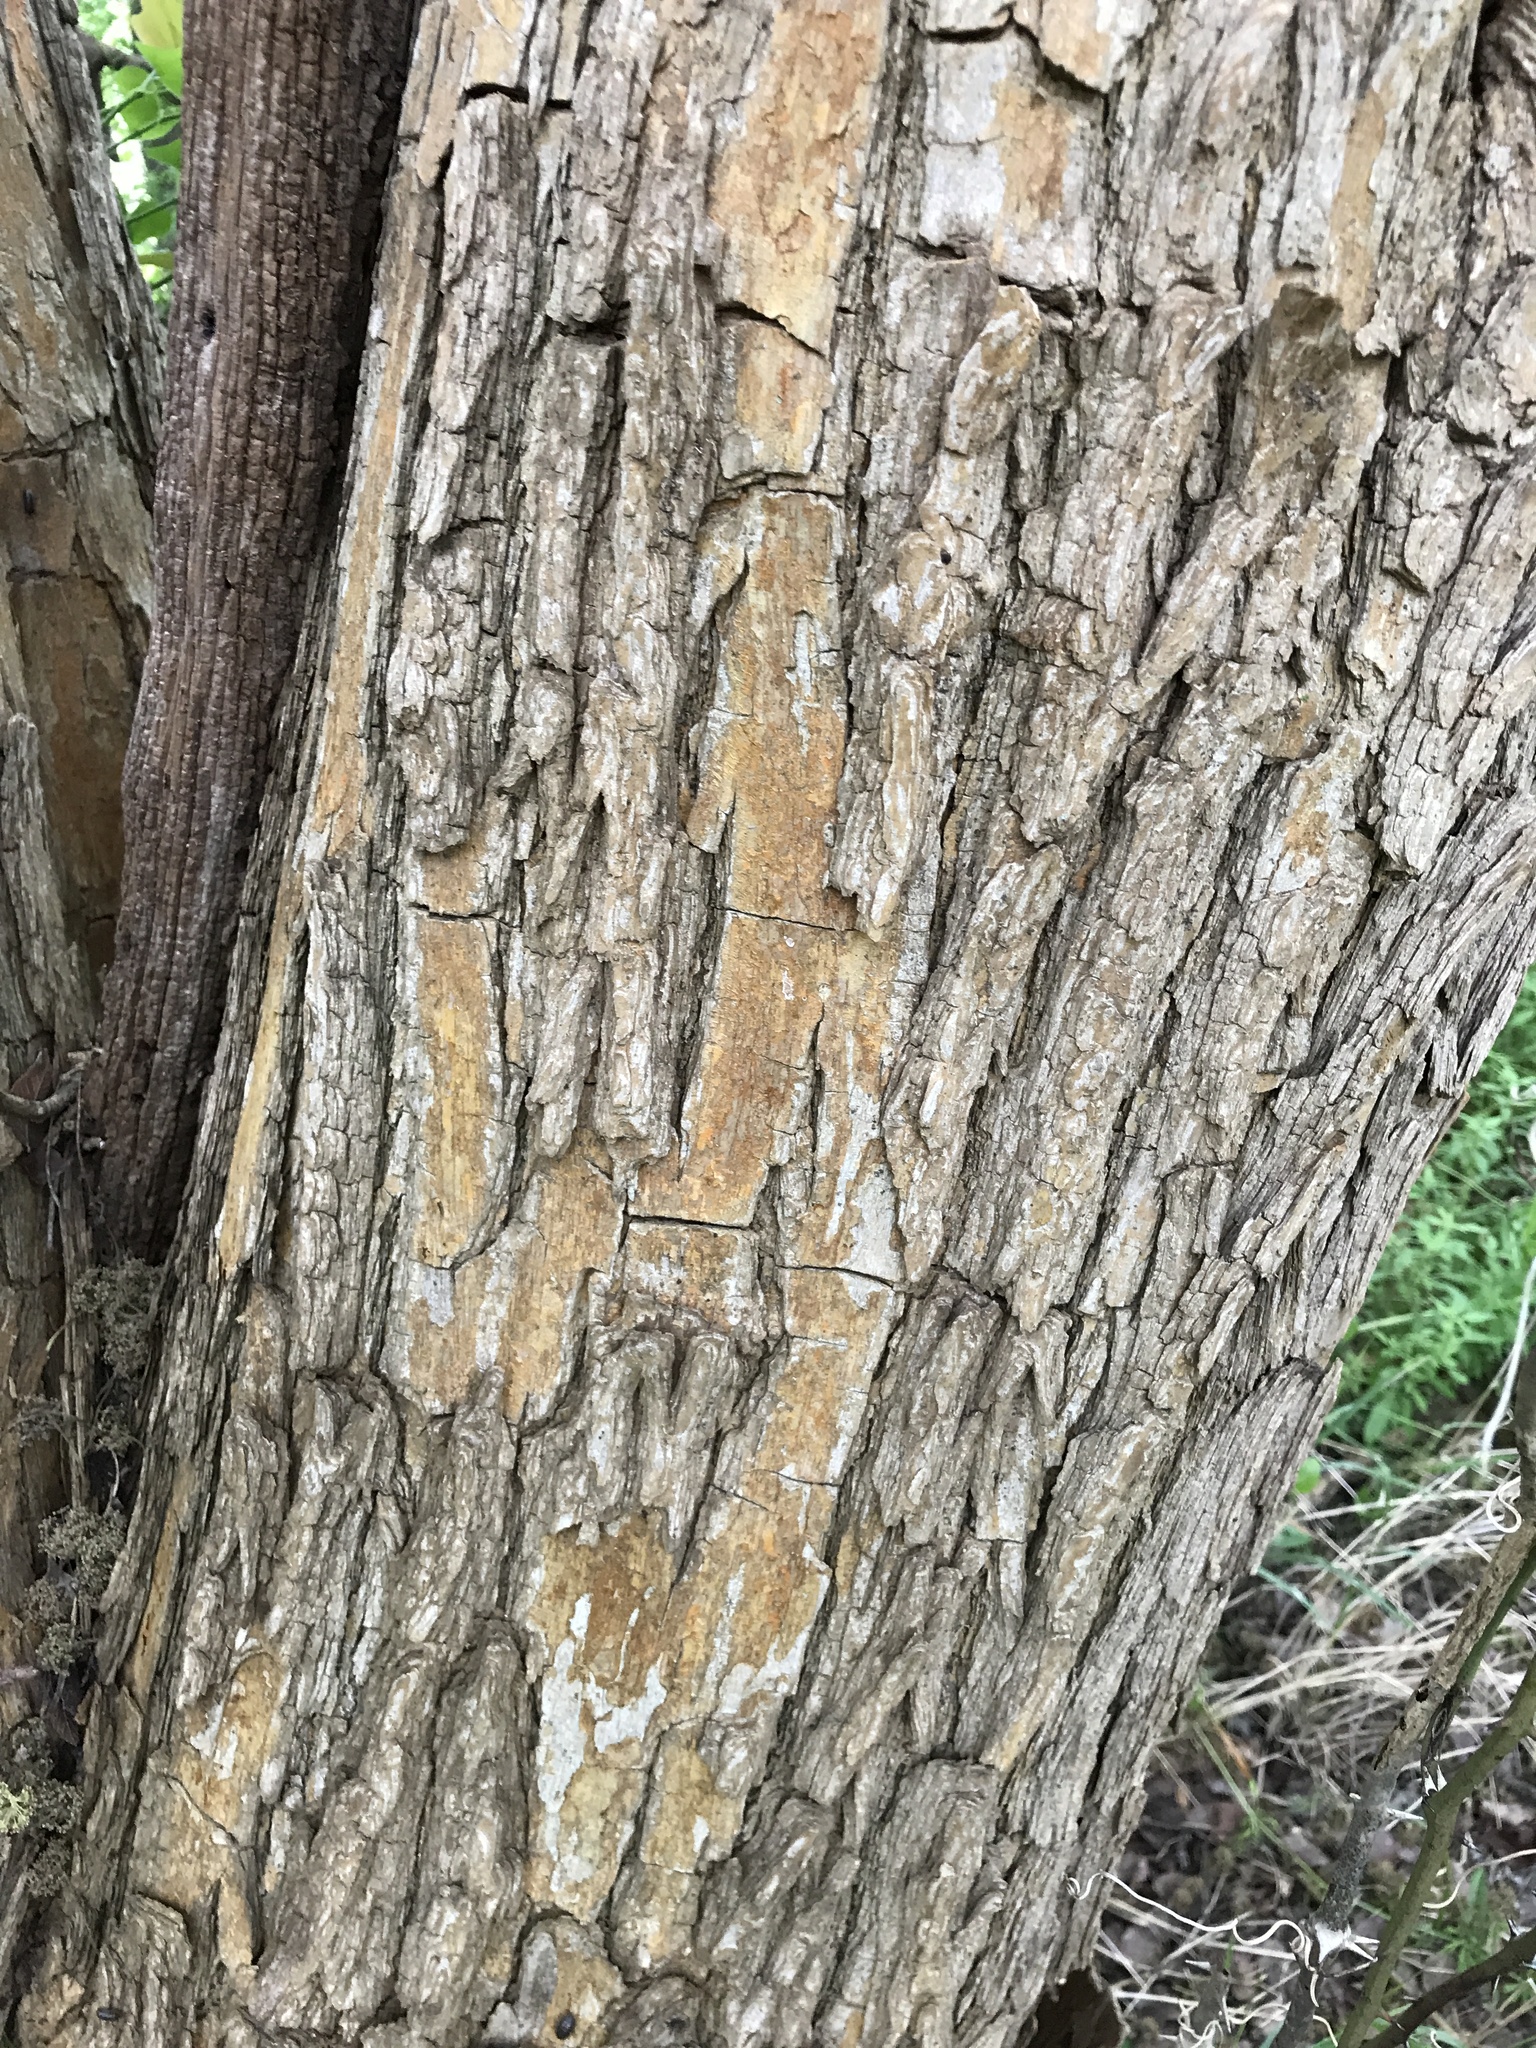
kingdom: Plantae
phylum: Tracheophyta
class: Magnoliopsida
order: Rosales
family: Moraceae
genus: Maclura
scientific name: Maclura pomifera
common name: Osage-orange
